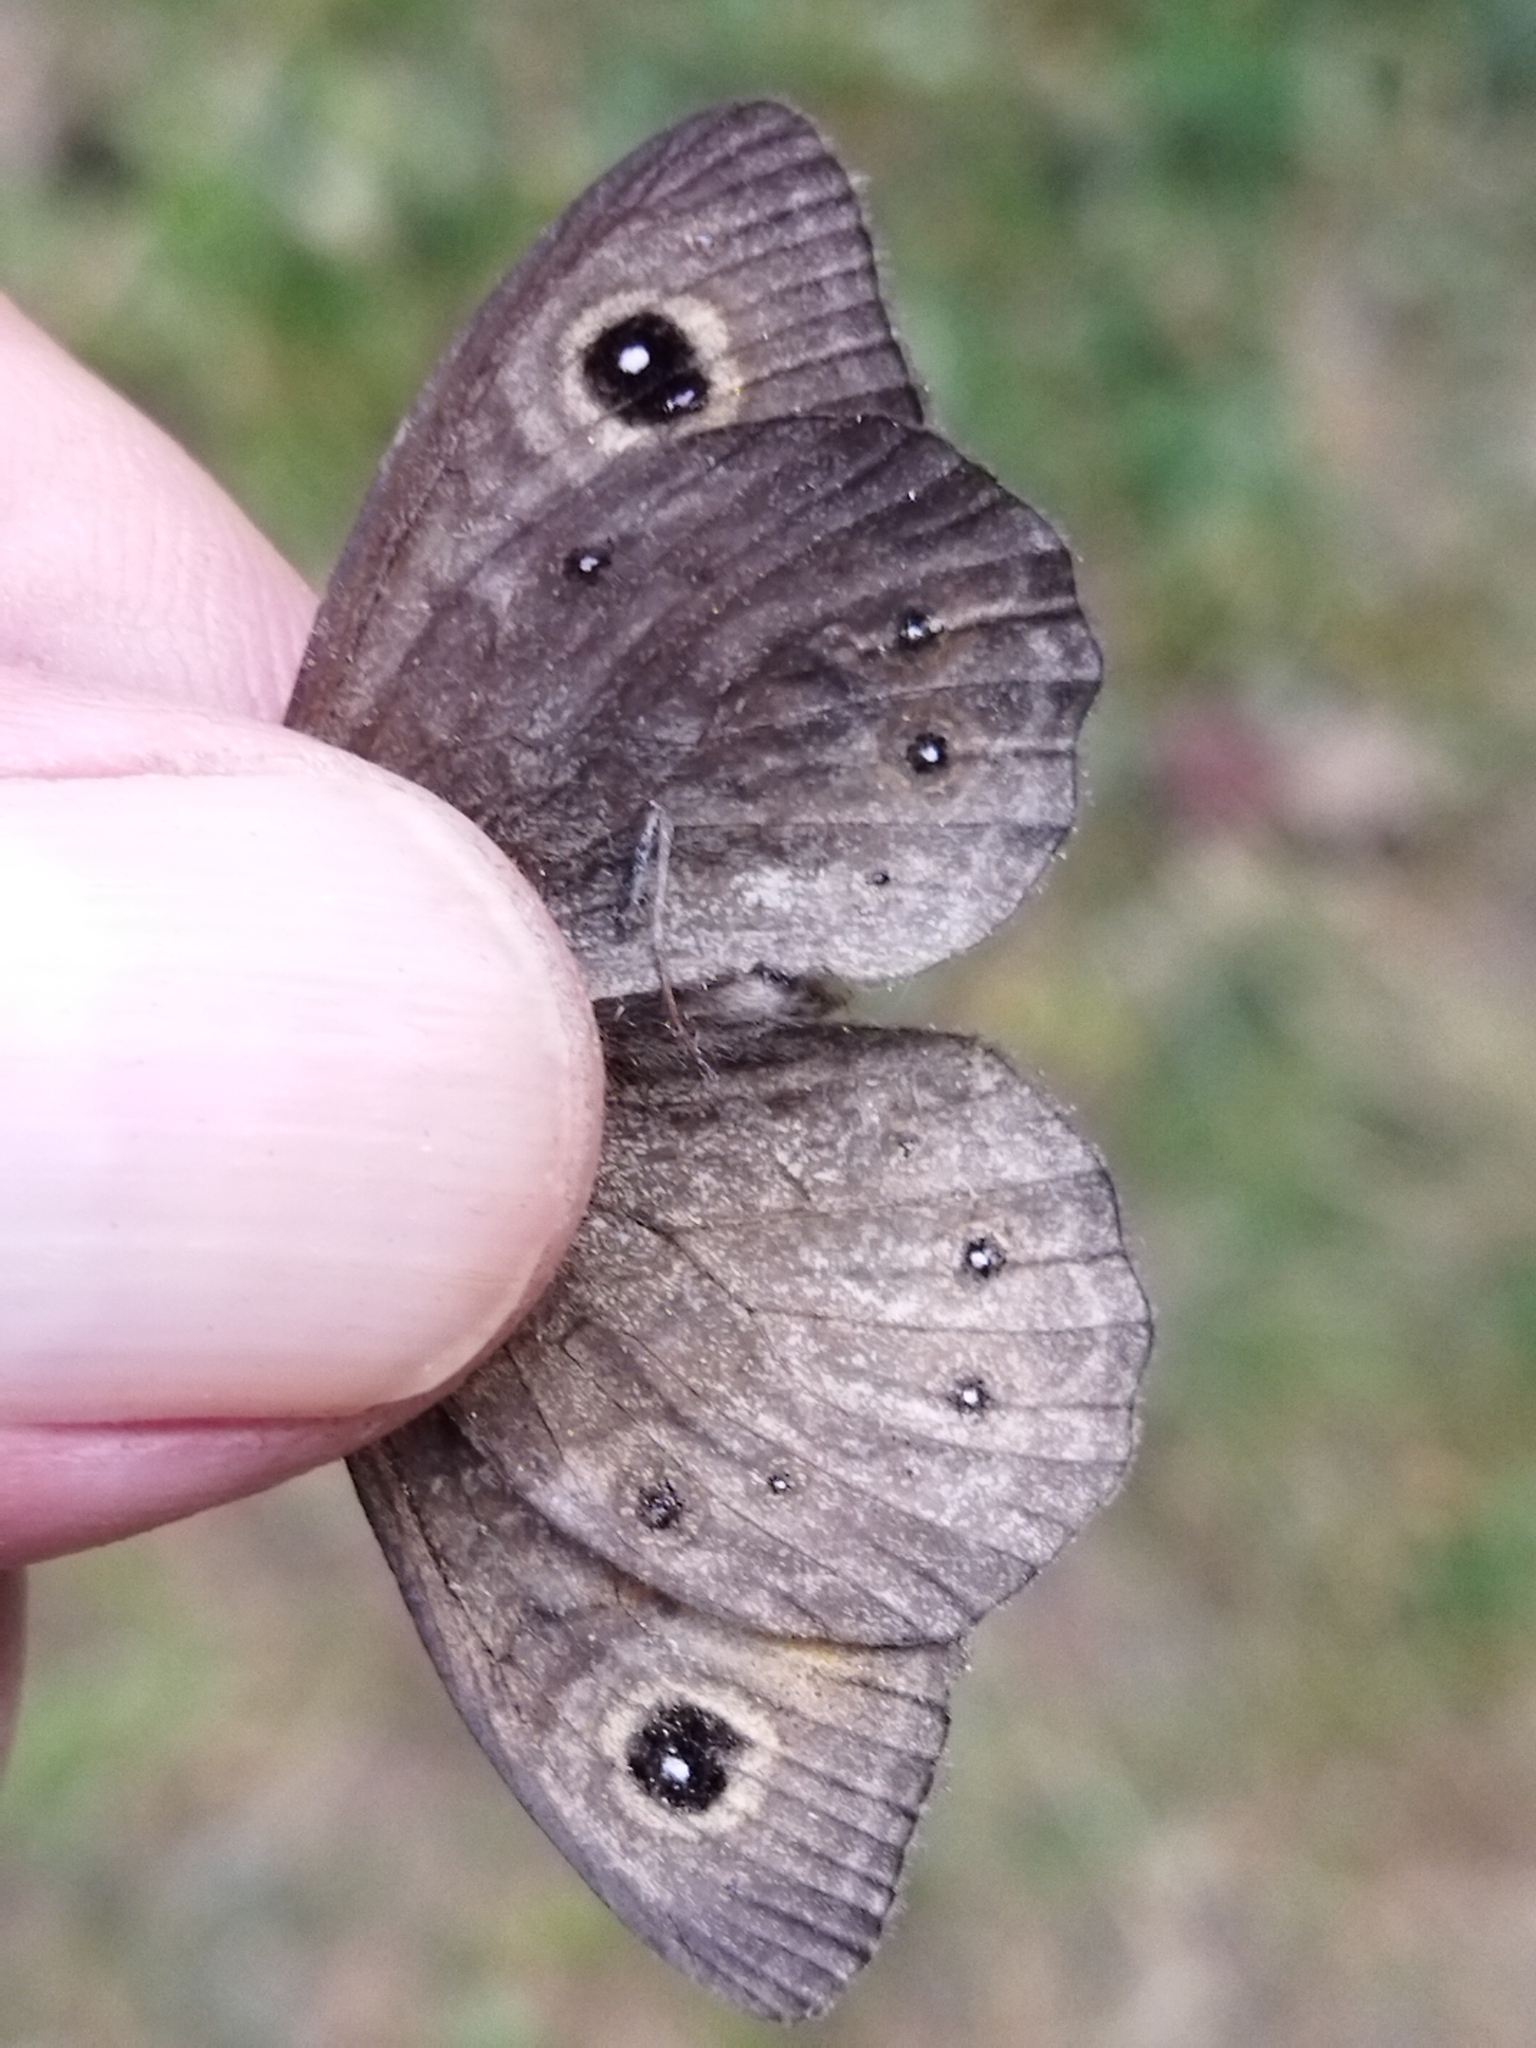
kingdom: Animalia
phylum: Arthropoda
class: Insecta
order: Lepidoptera
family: Nymphalidae
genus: Pararge
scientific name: Pararge Lasiommata maera
